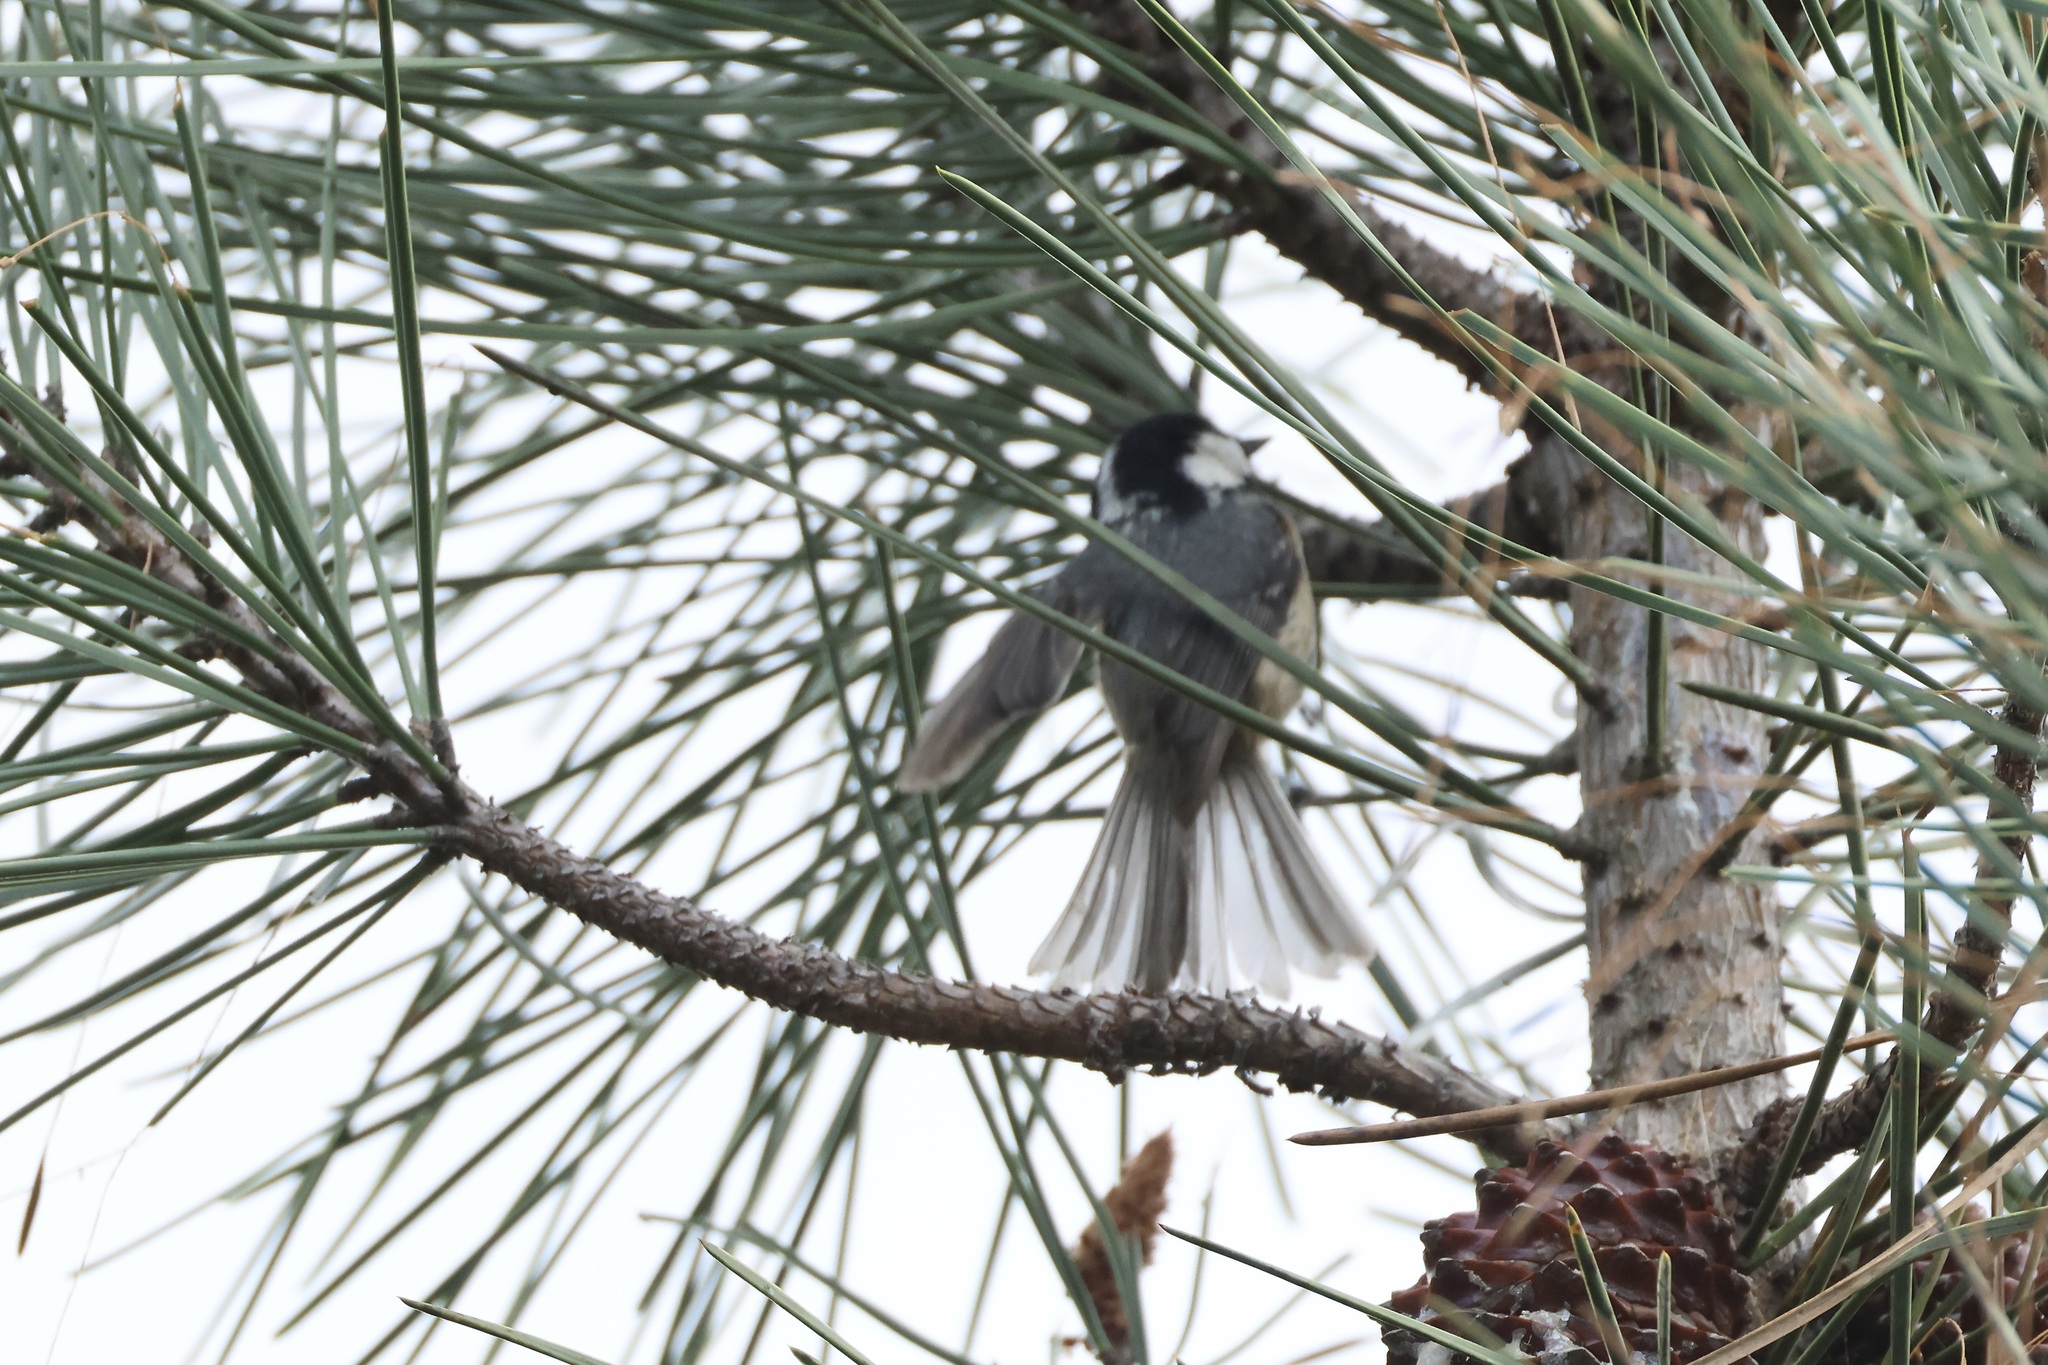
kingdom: Animalia
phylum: Chordata
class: Aves
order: Passeriformes
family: Paridae
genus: Periparus
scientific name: Periparus ater
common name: Coal tit
